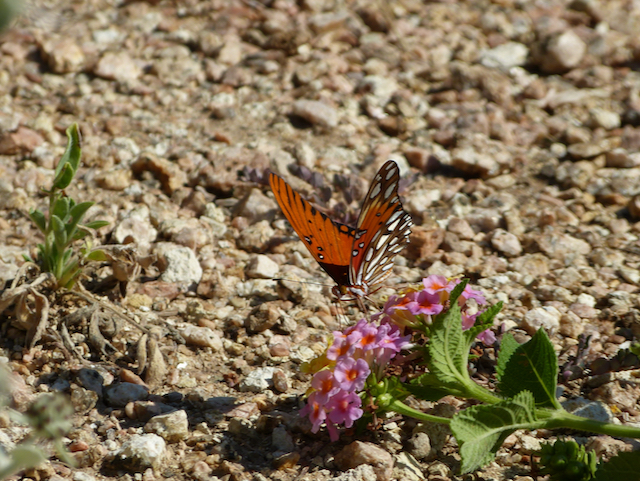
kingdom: Animalia
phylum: Arthropoda
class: Insecta
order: Lepidoptera
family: Nymphalidae
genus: Dione
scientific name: Dione vanillae
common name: Gulf fritillary
